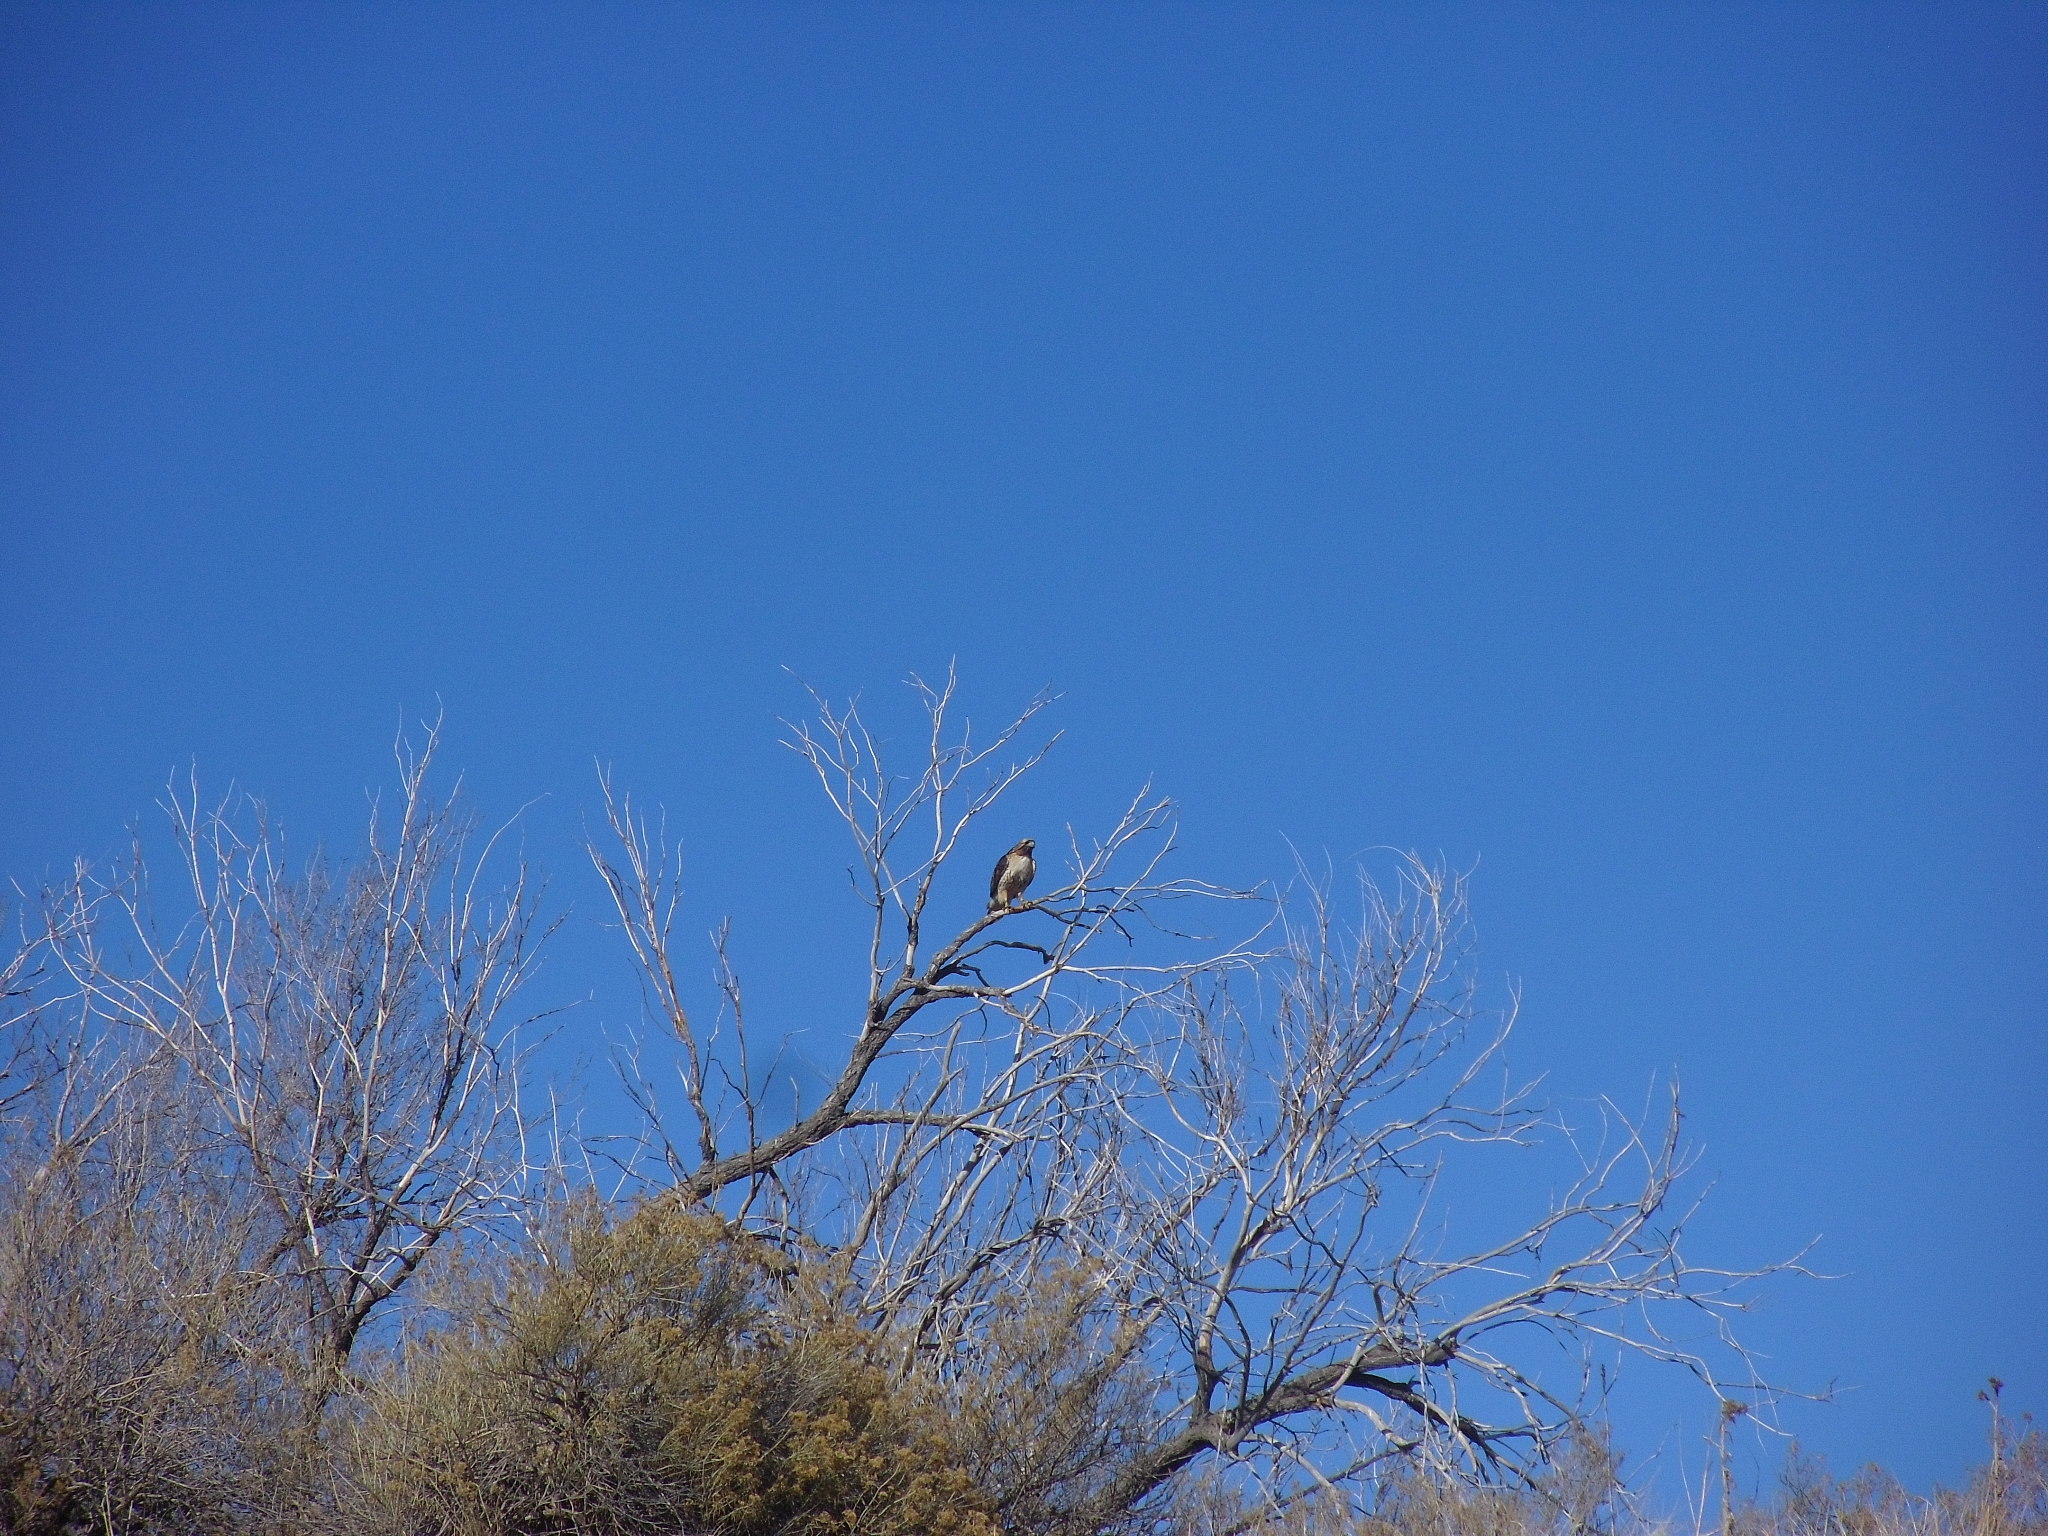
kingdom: Animalia
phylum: Chordata
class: Aves
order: Accipitriformes
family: Accipitridae
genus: Buteo
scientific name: Buteo jamaicensis
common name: Red-tailed hawk
